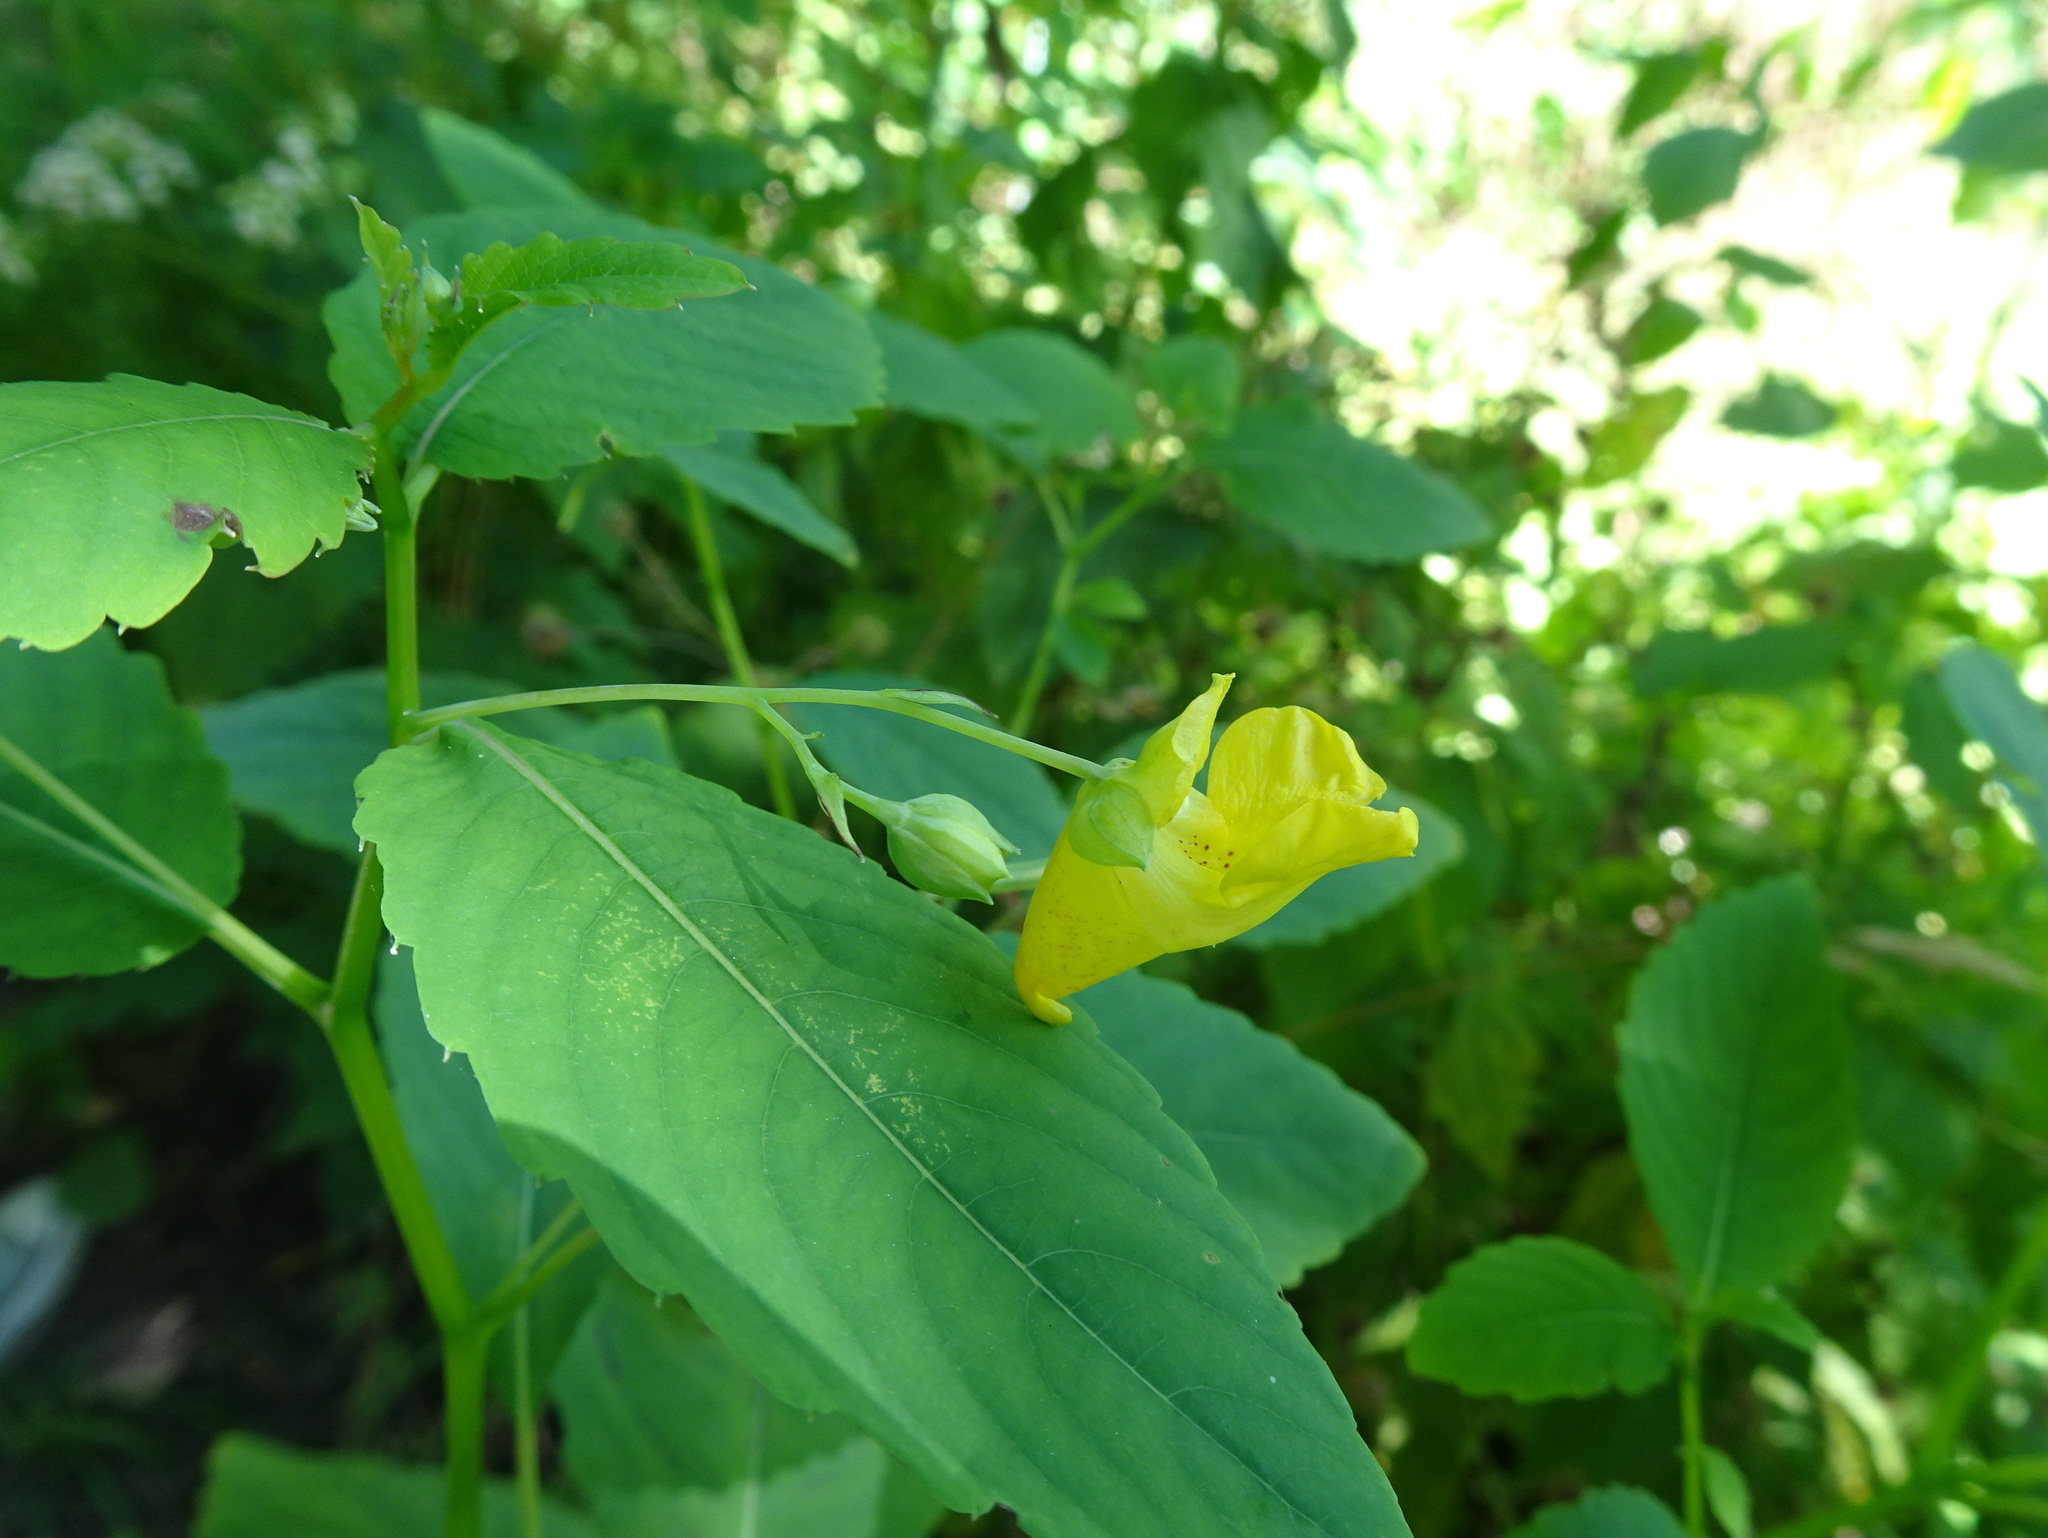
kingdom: Plantae
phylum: Tracheophyta
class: Magnoliopsida
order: Ericales
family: Balsaminaceae
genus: Impatiens
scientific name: Impatiens pallida
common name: Pale snapweed
